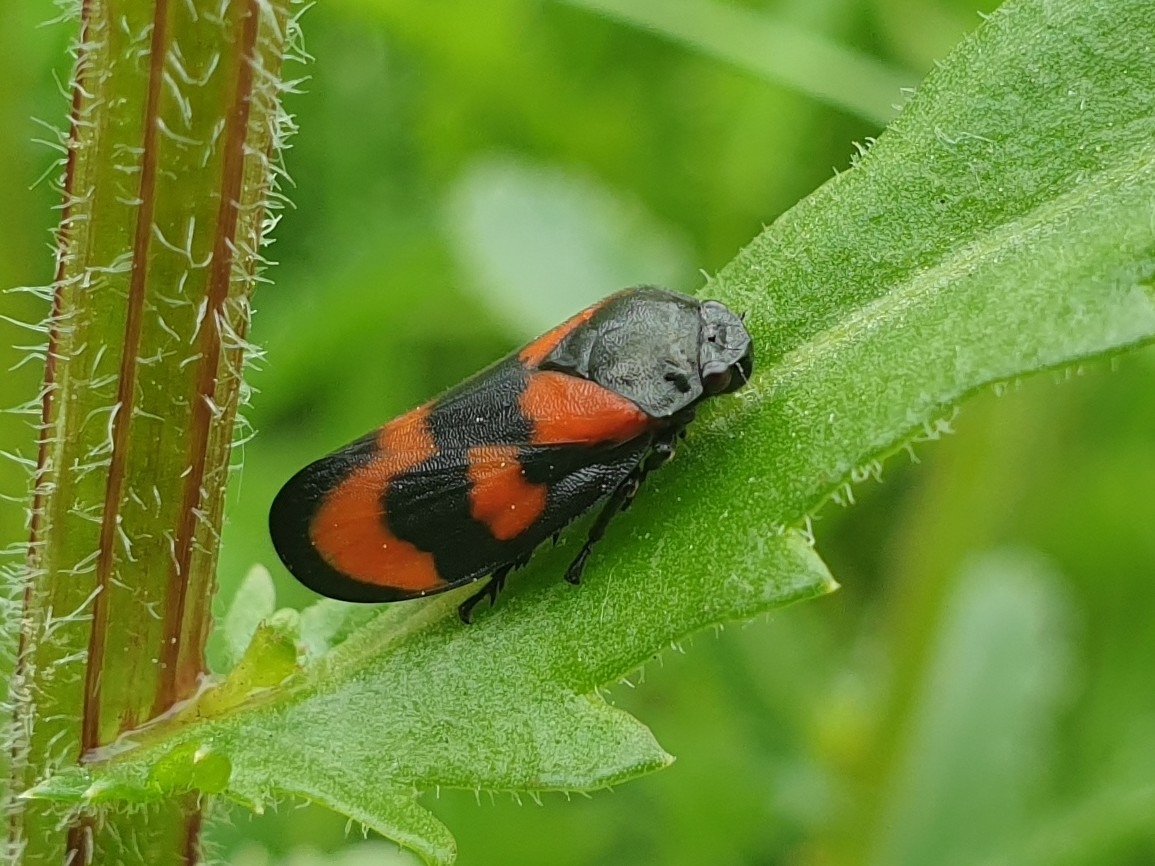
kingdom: Animalia
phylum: Arthropoda
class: Insecta
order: Hemiptera
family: Cercopidae
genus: Cercopis
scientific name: Cercopis vulnerata
